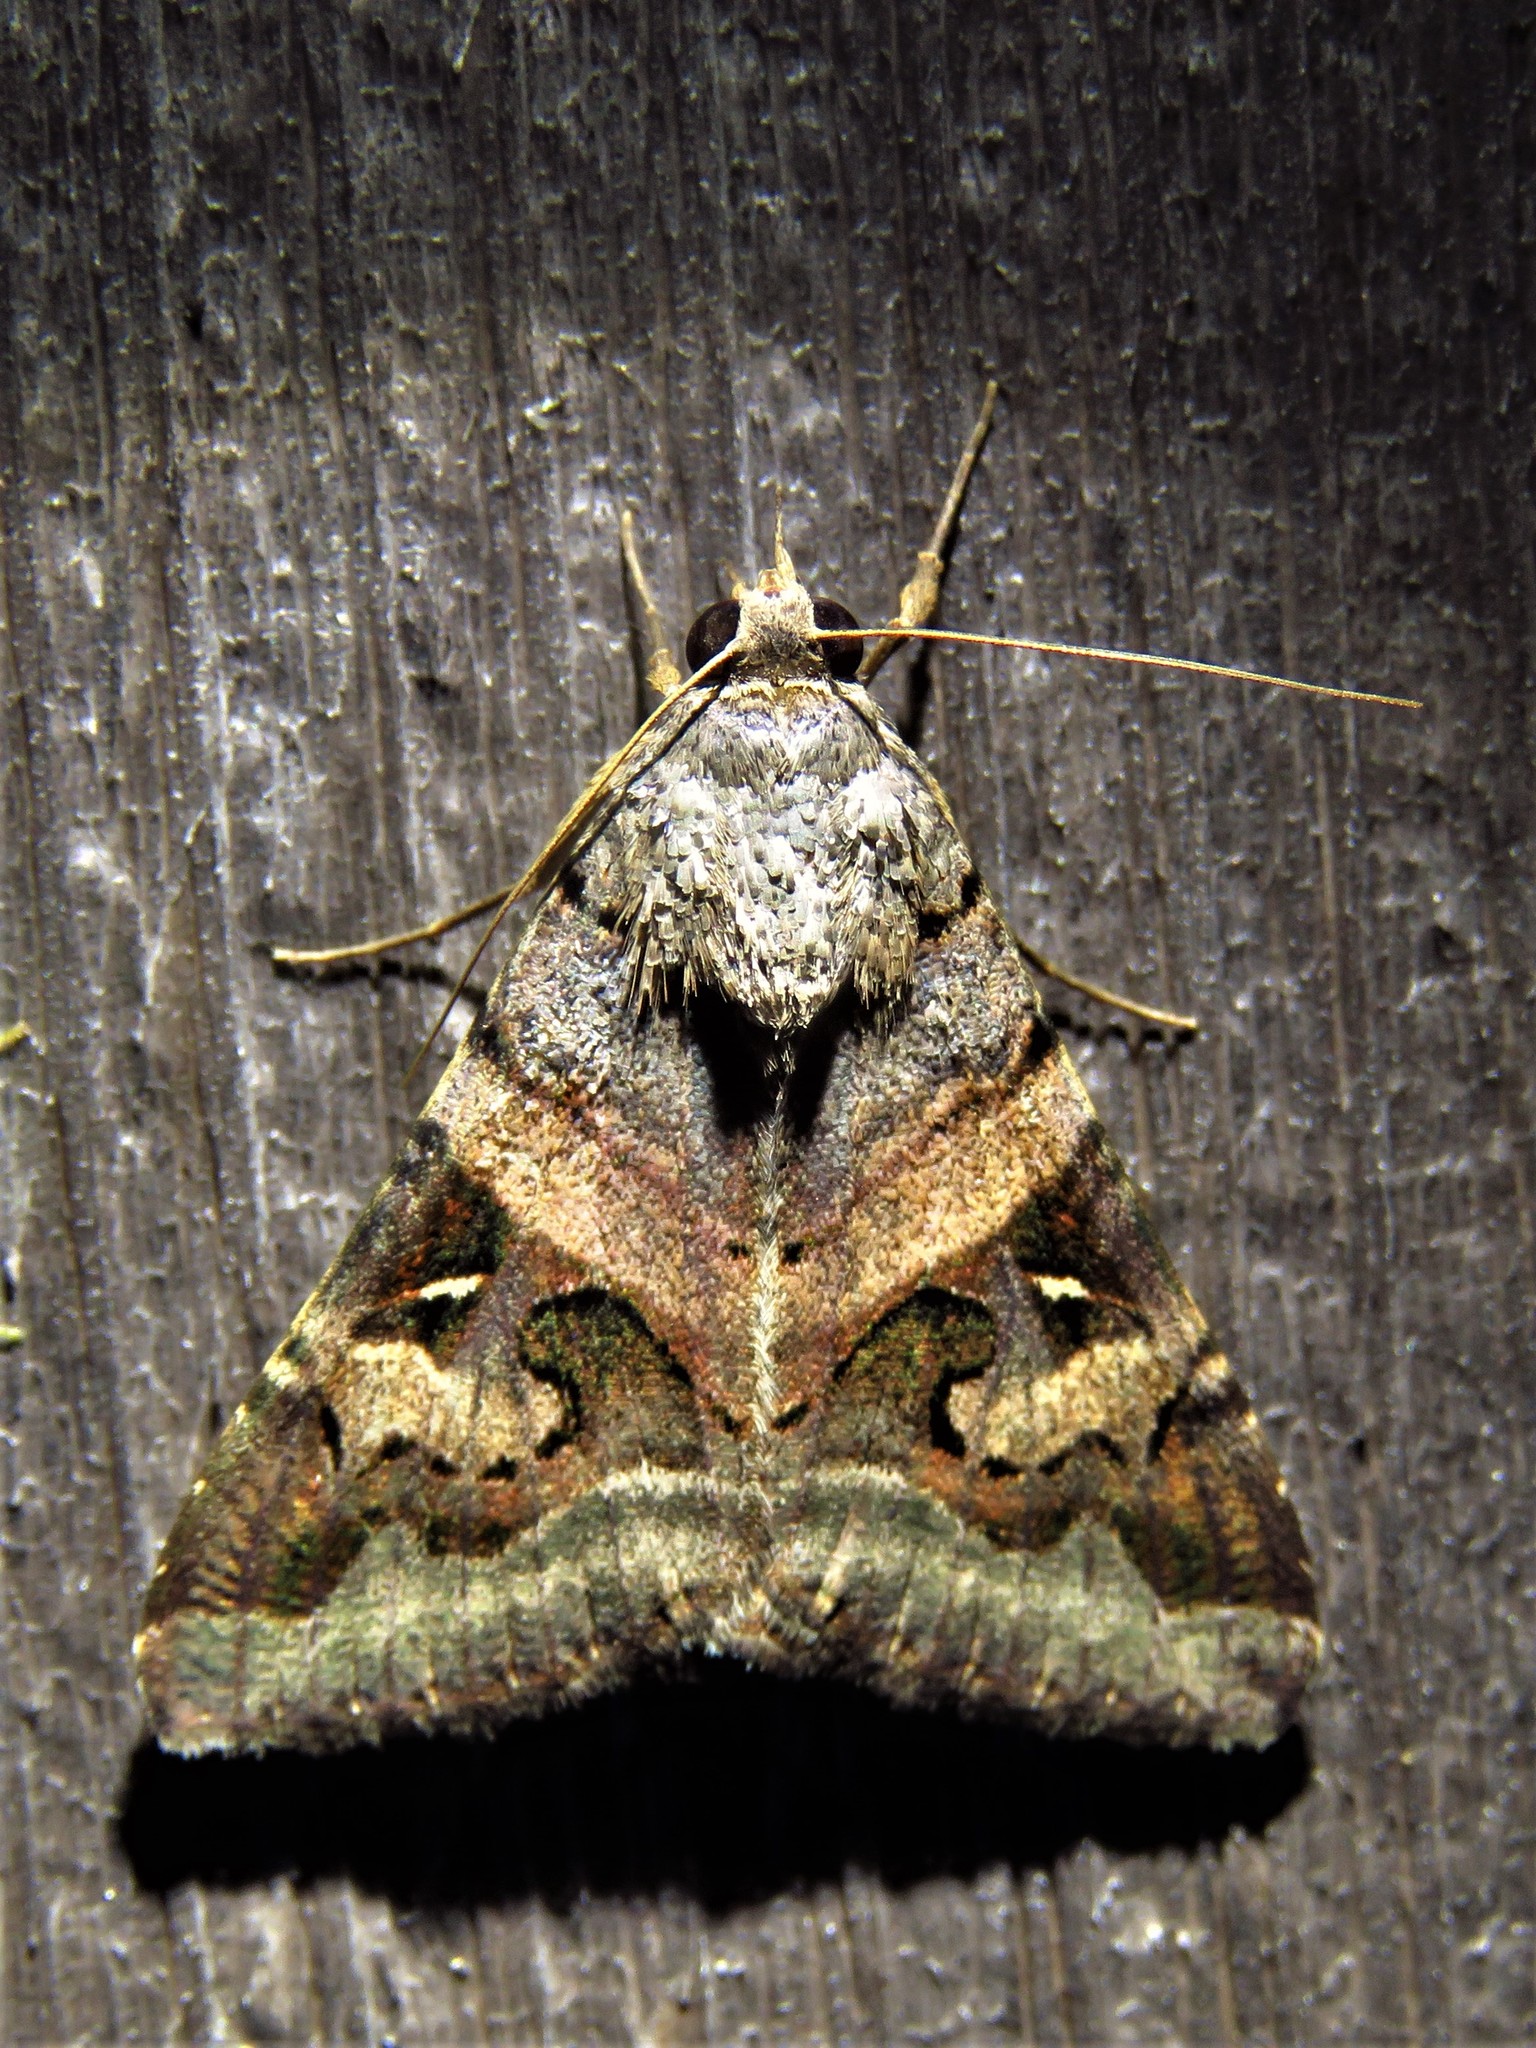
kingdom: Animalia
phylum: Arthropoda
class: Insecta
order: Lepidoptera
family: Erebidae
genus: Melipotis
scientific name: Melipotis indomita
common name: Moth
